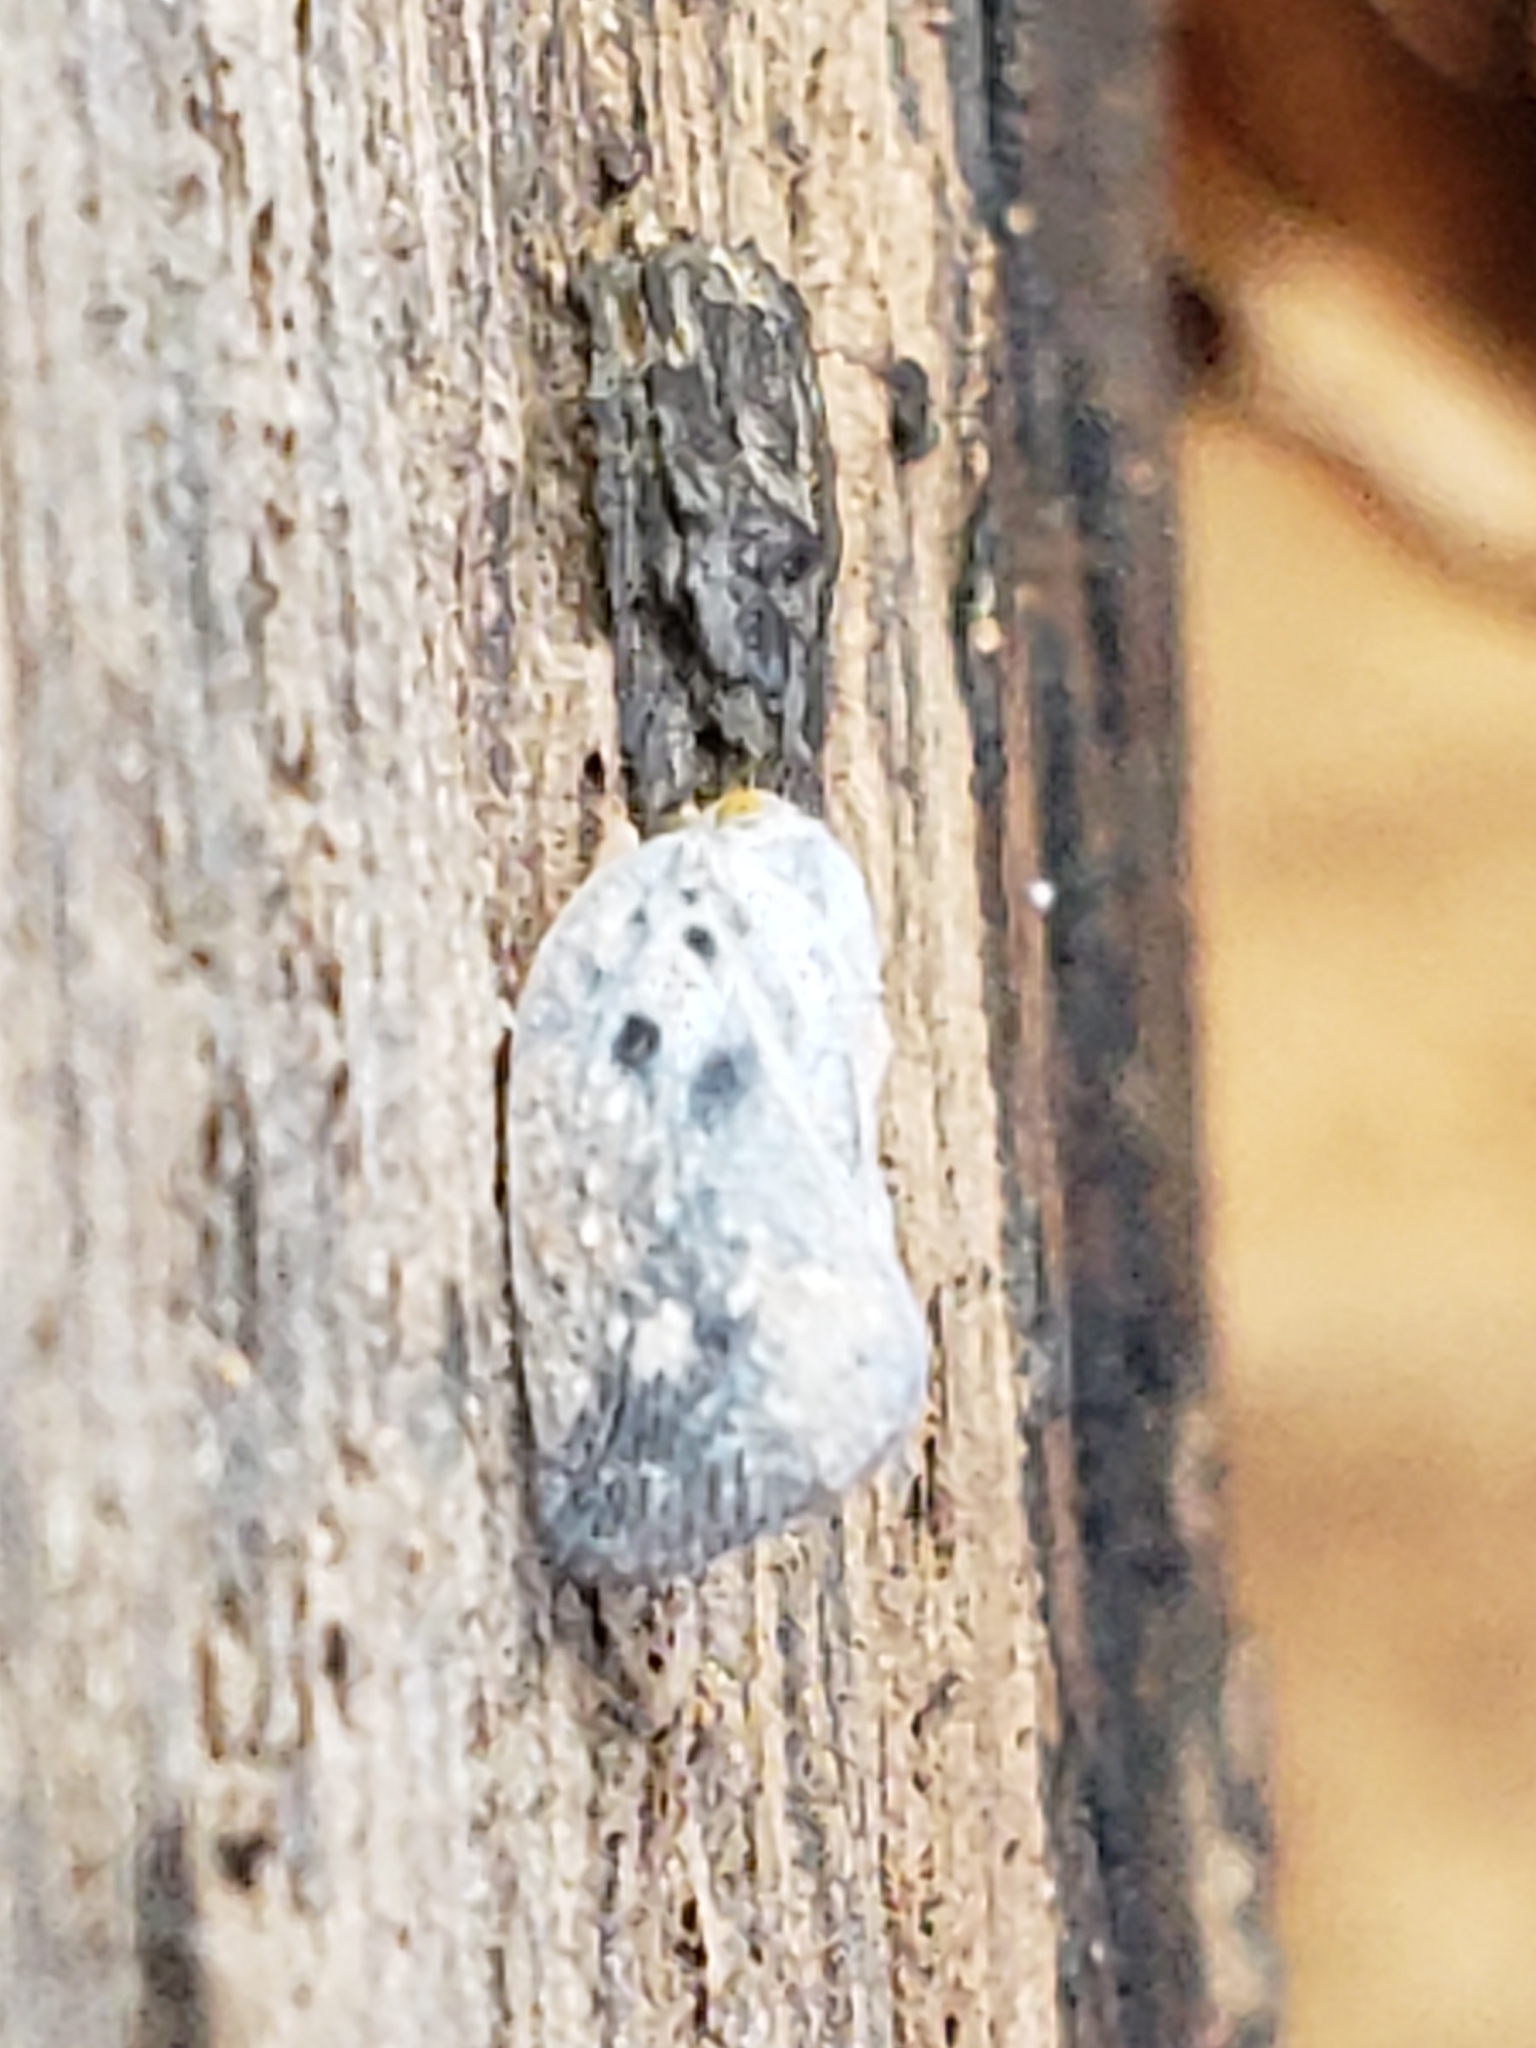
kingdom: Animalia
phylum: Arthropoda
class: Insecta
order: Hemiptera
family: Flatidae
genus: Metcalfa
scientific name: Metcalfa pruinosa
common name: Citrus flatid planthopper
